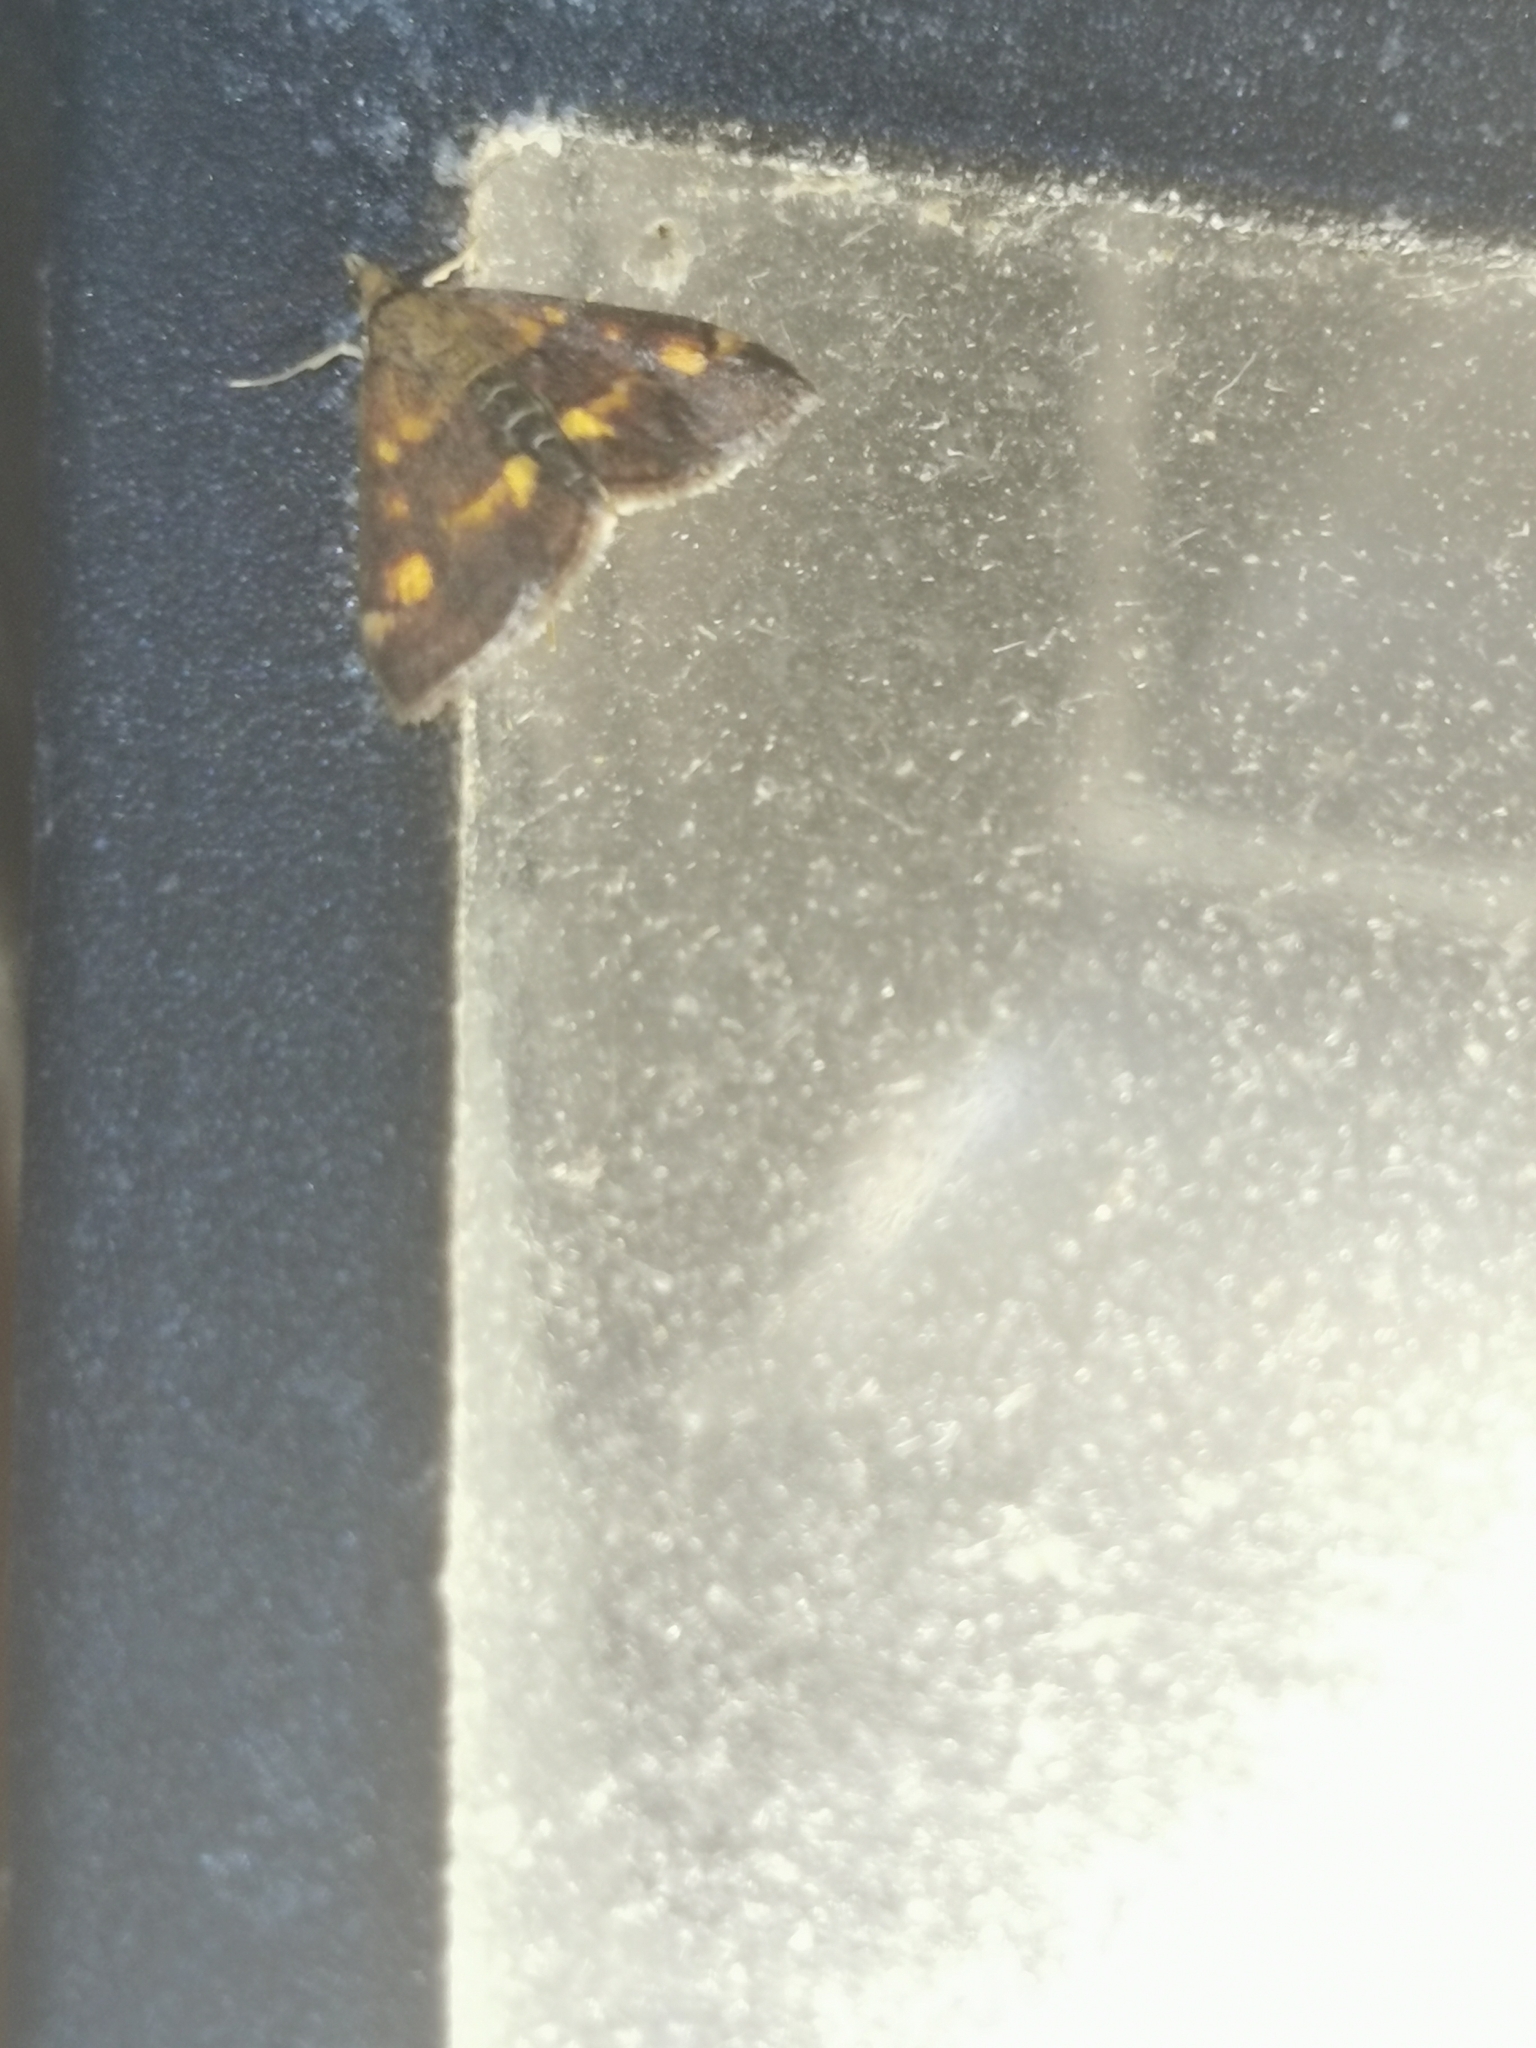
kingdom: Animalia
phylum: Arthropoda
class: Insecta
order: Lepidoptera
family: Crambidae
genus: Pyrausta
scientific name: Pyrausta aurata
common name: Small purple & gold
